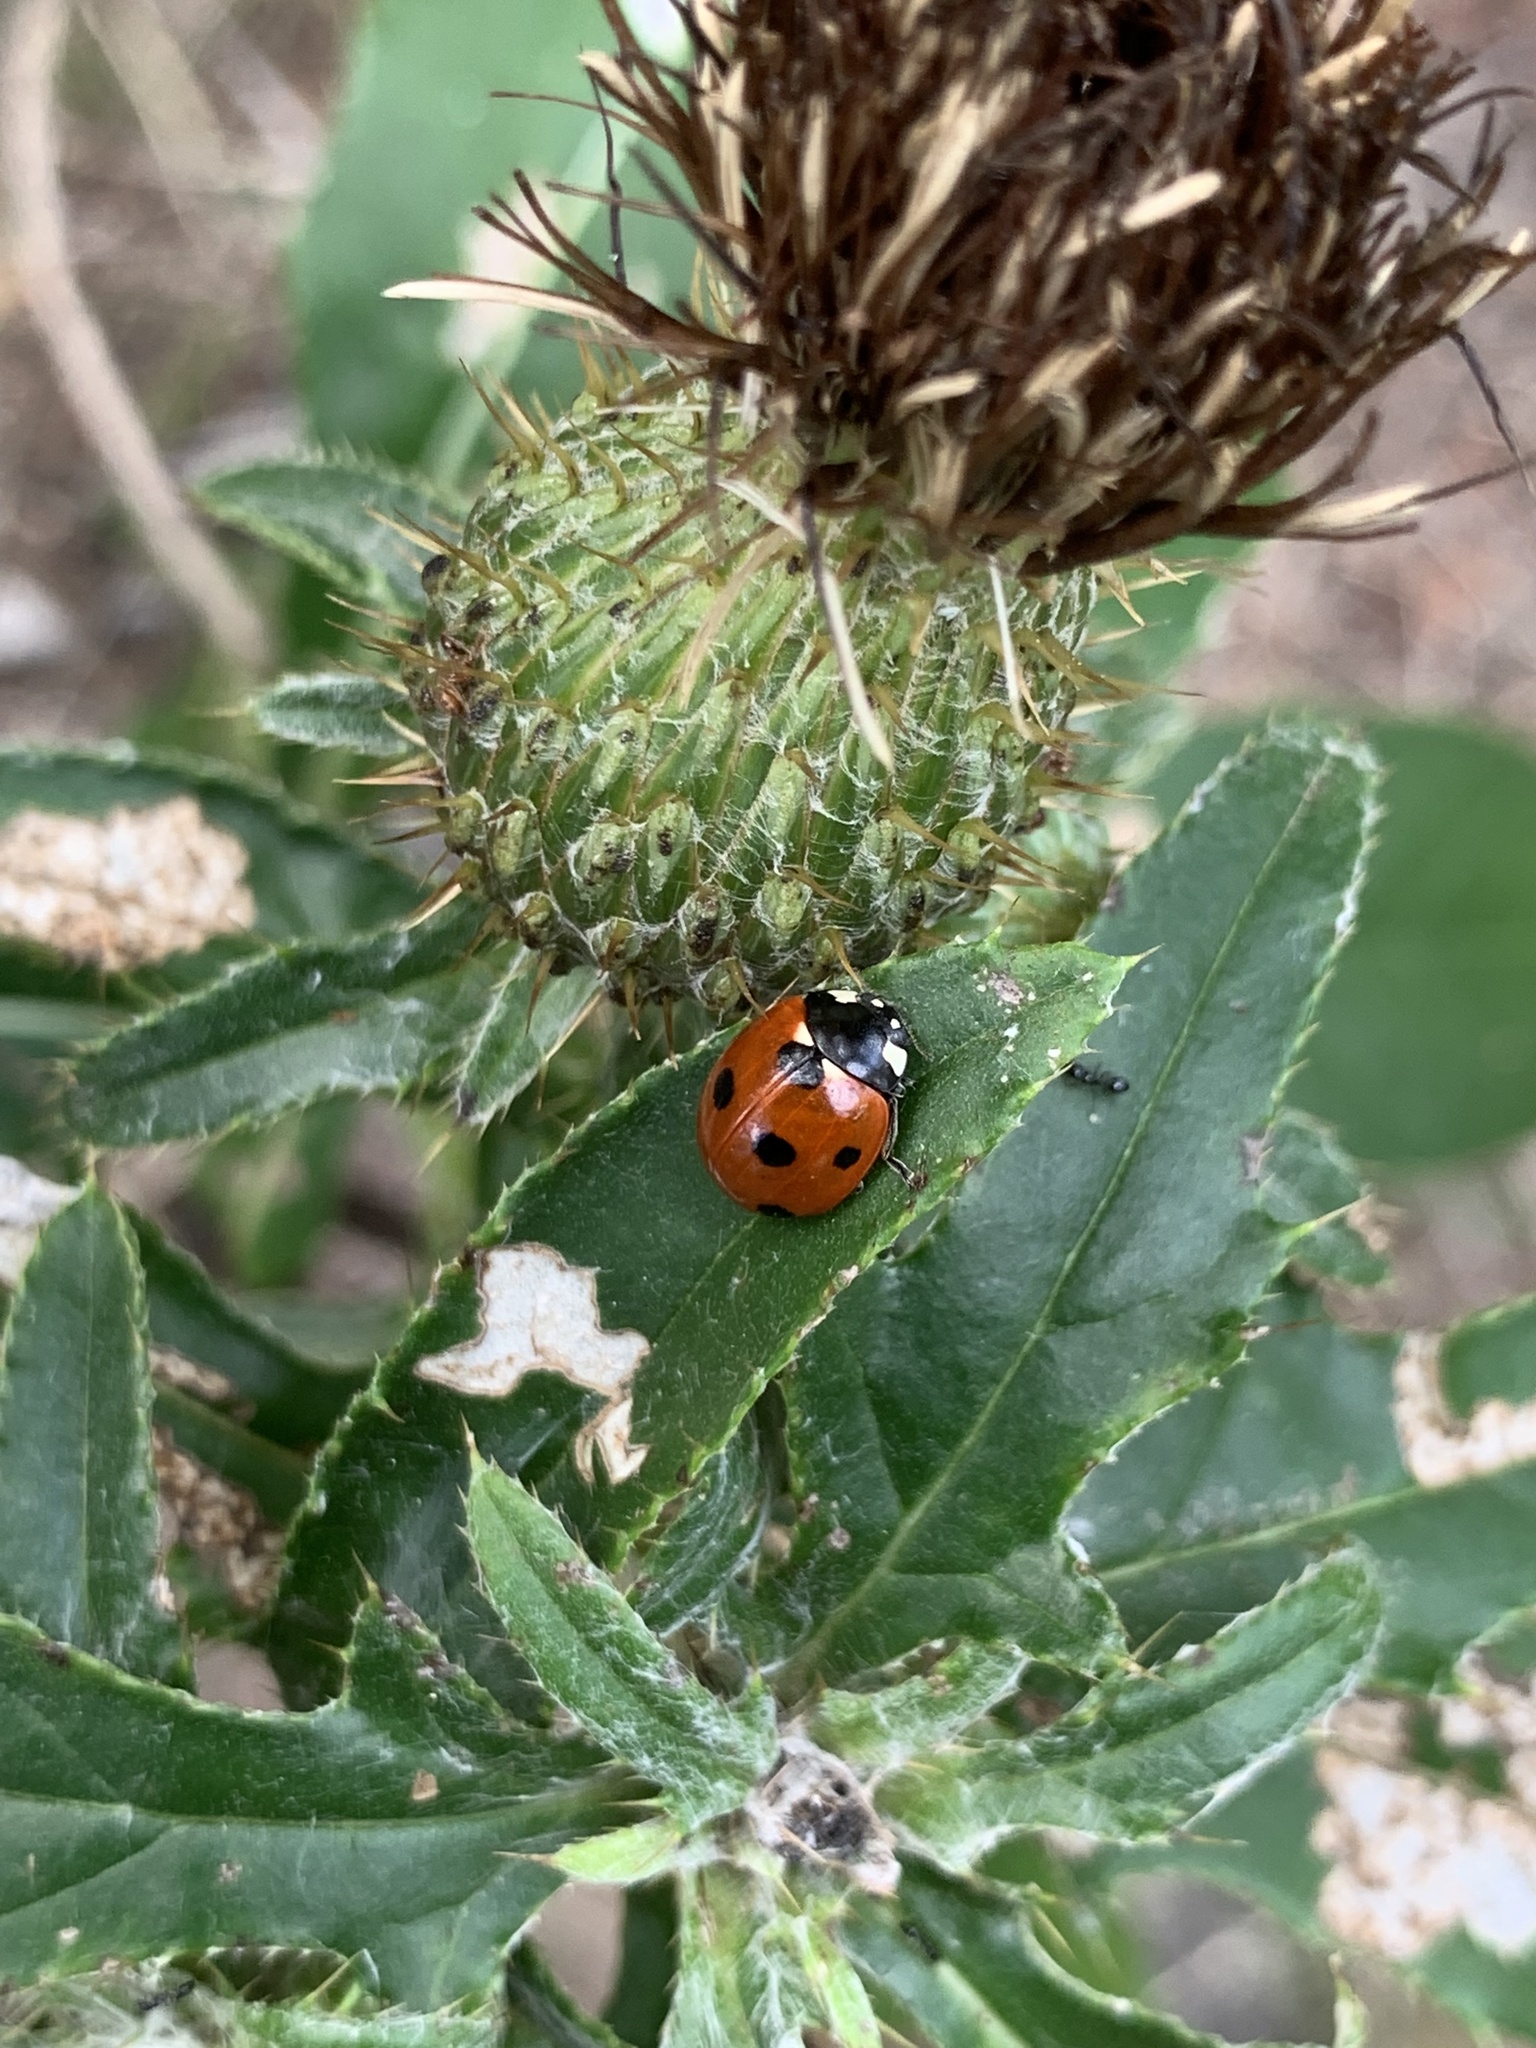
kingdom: Animalia
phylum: Arthropoda
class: Insecta
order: Coleoptera
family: Coccinellidae
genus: Coccinella
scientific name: Coccinella septempunctata
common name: Sevenspotted lady beetle
